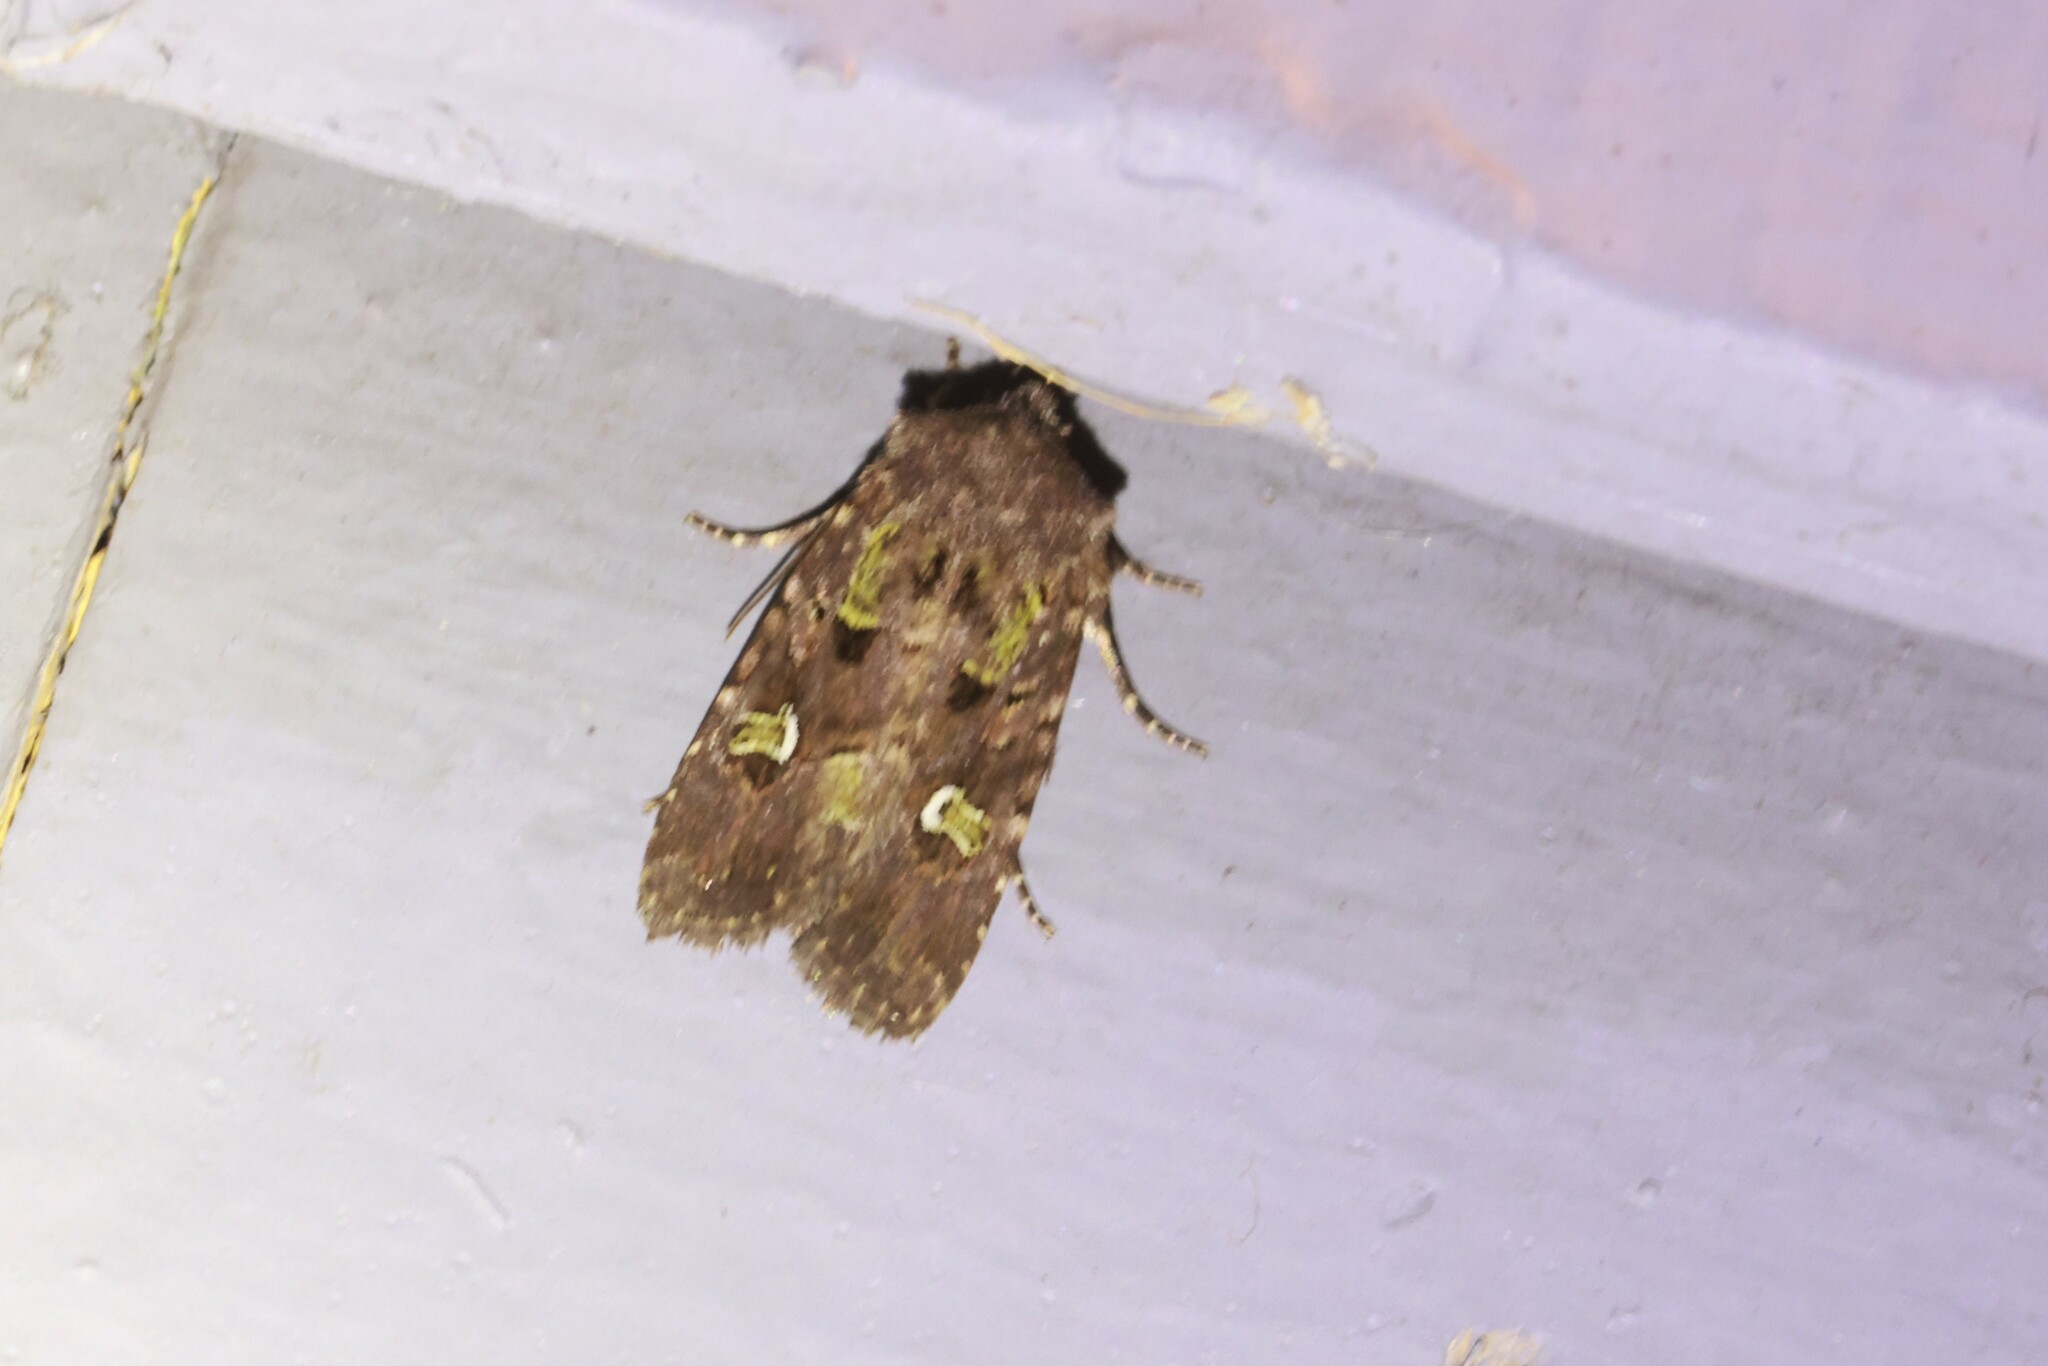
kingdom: Animalia
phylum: Arthropoda
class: Insecta
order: Lepidoptera
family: Noctuidae
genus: Lacinipolia
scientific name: Lacinipolia renigera
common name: Kidney-spotted minor
